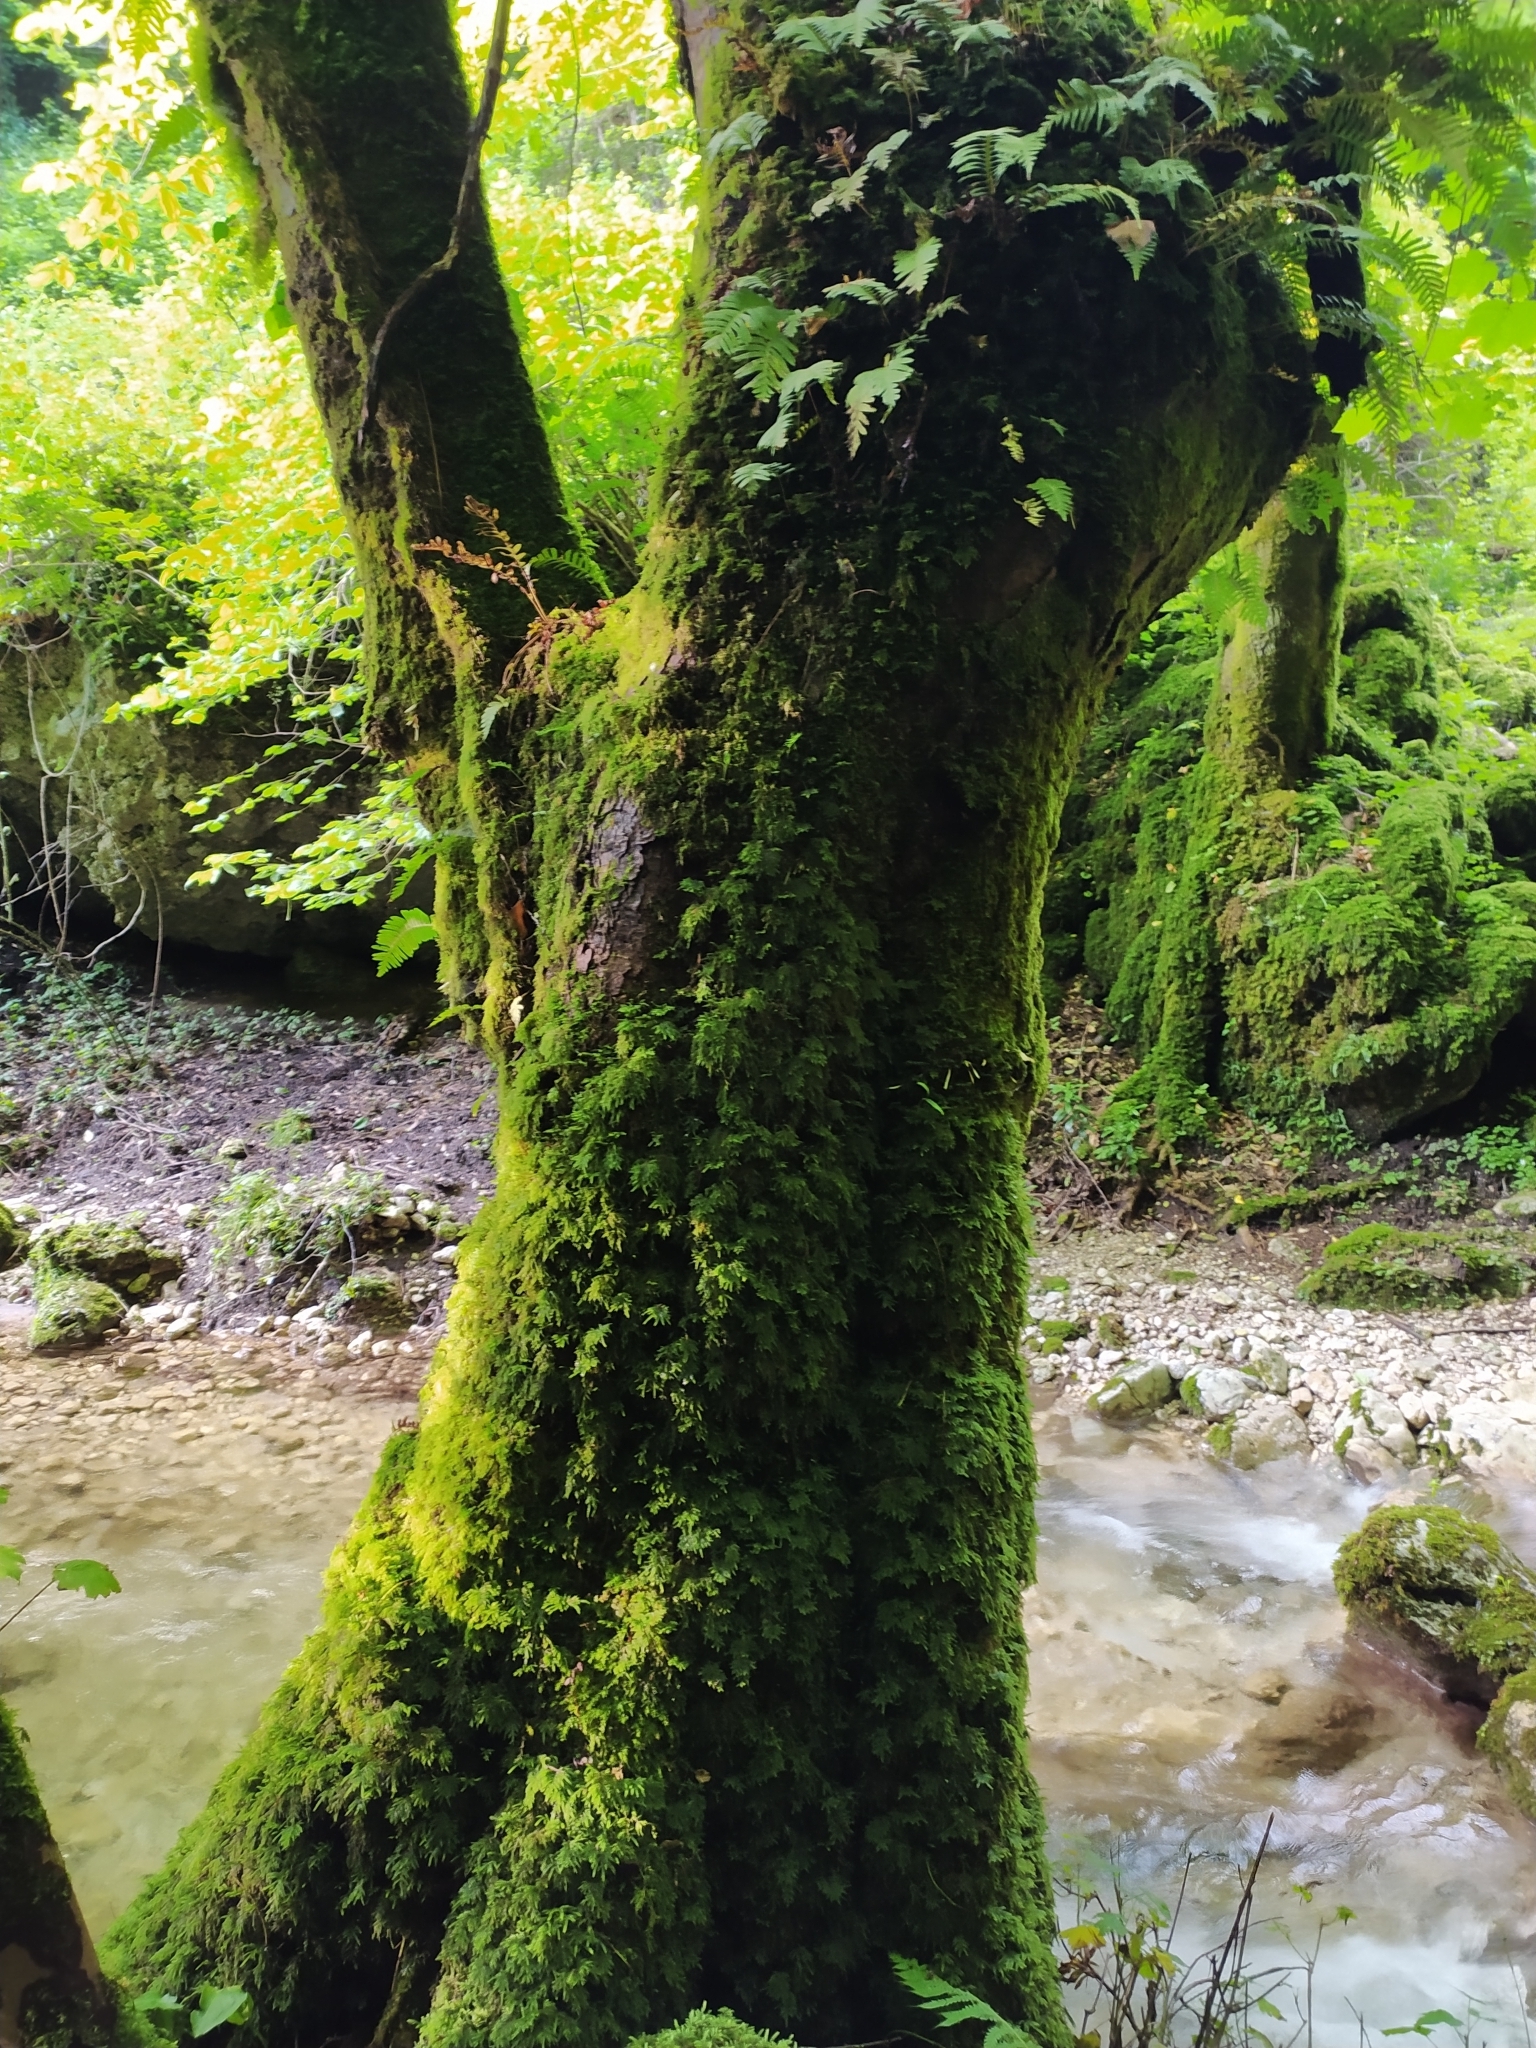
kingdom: Plantae
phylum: Tracheophyta
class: Magnoliopsida
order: Sapindales
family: Sapindaceae
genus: Acer
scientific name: Acer pseudoplatanus
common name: Sycamore
